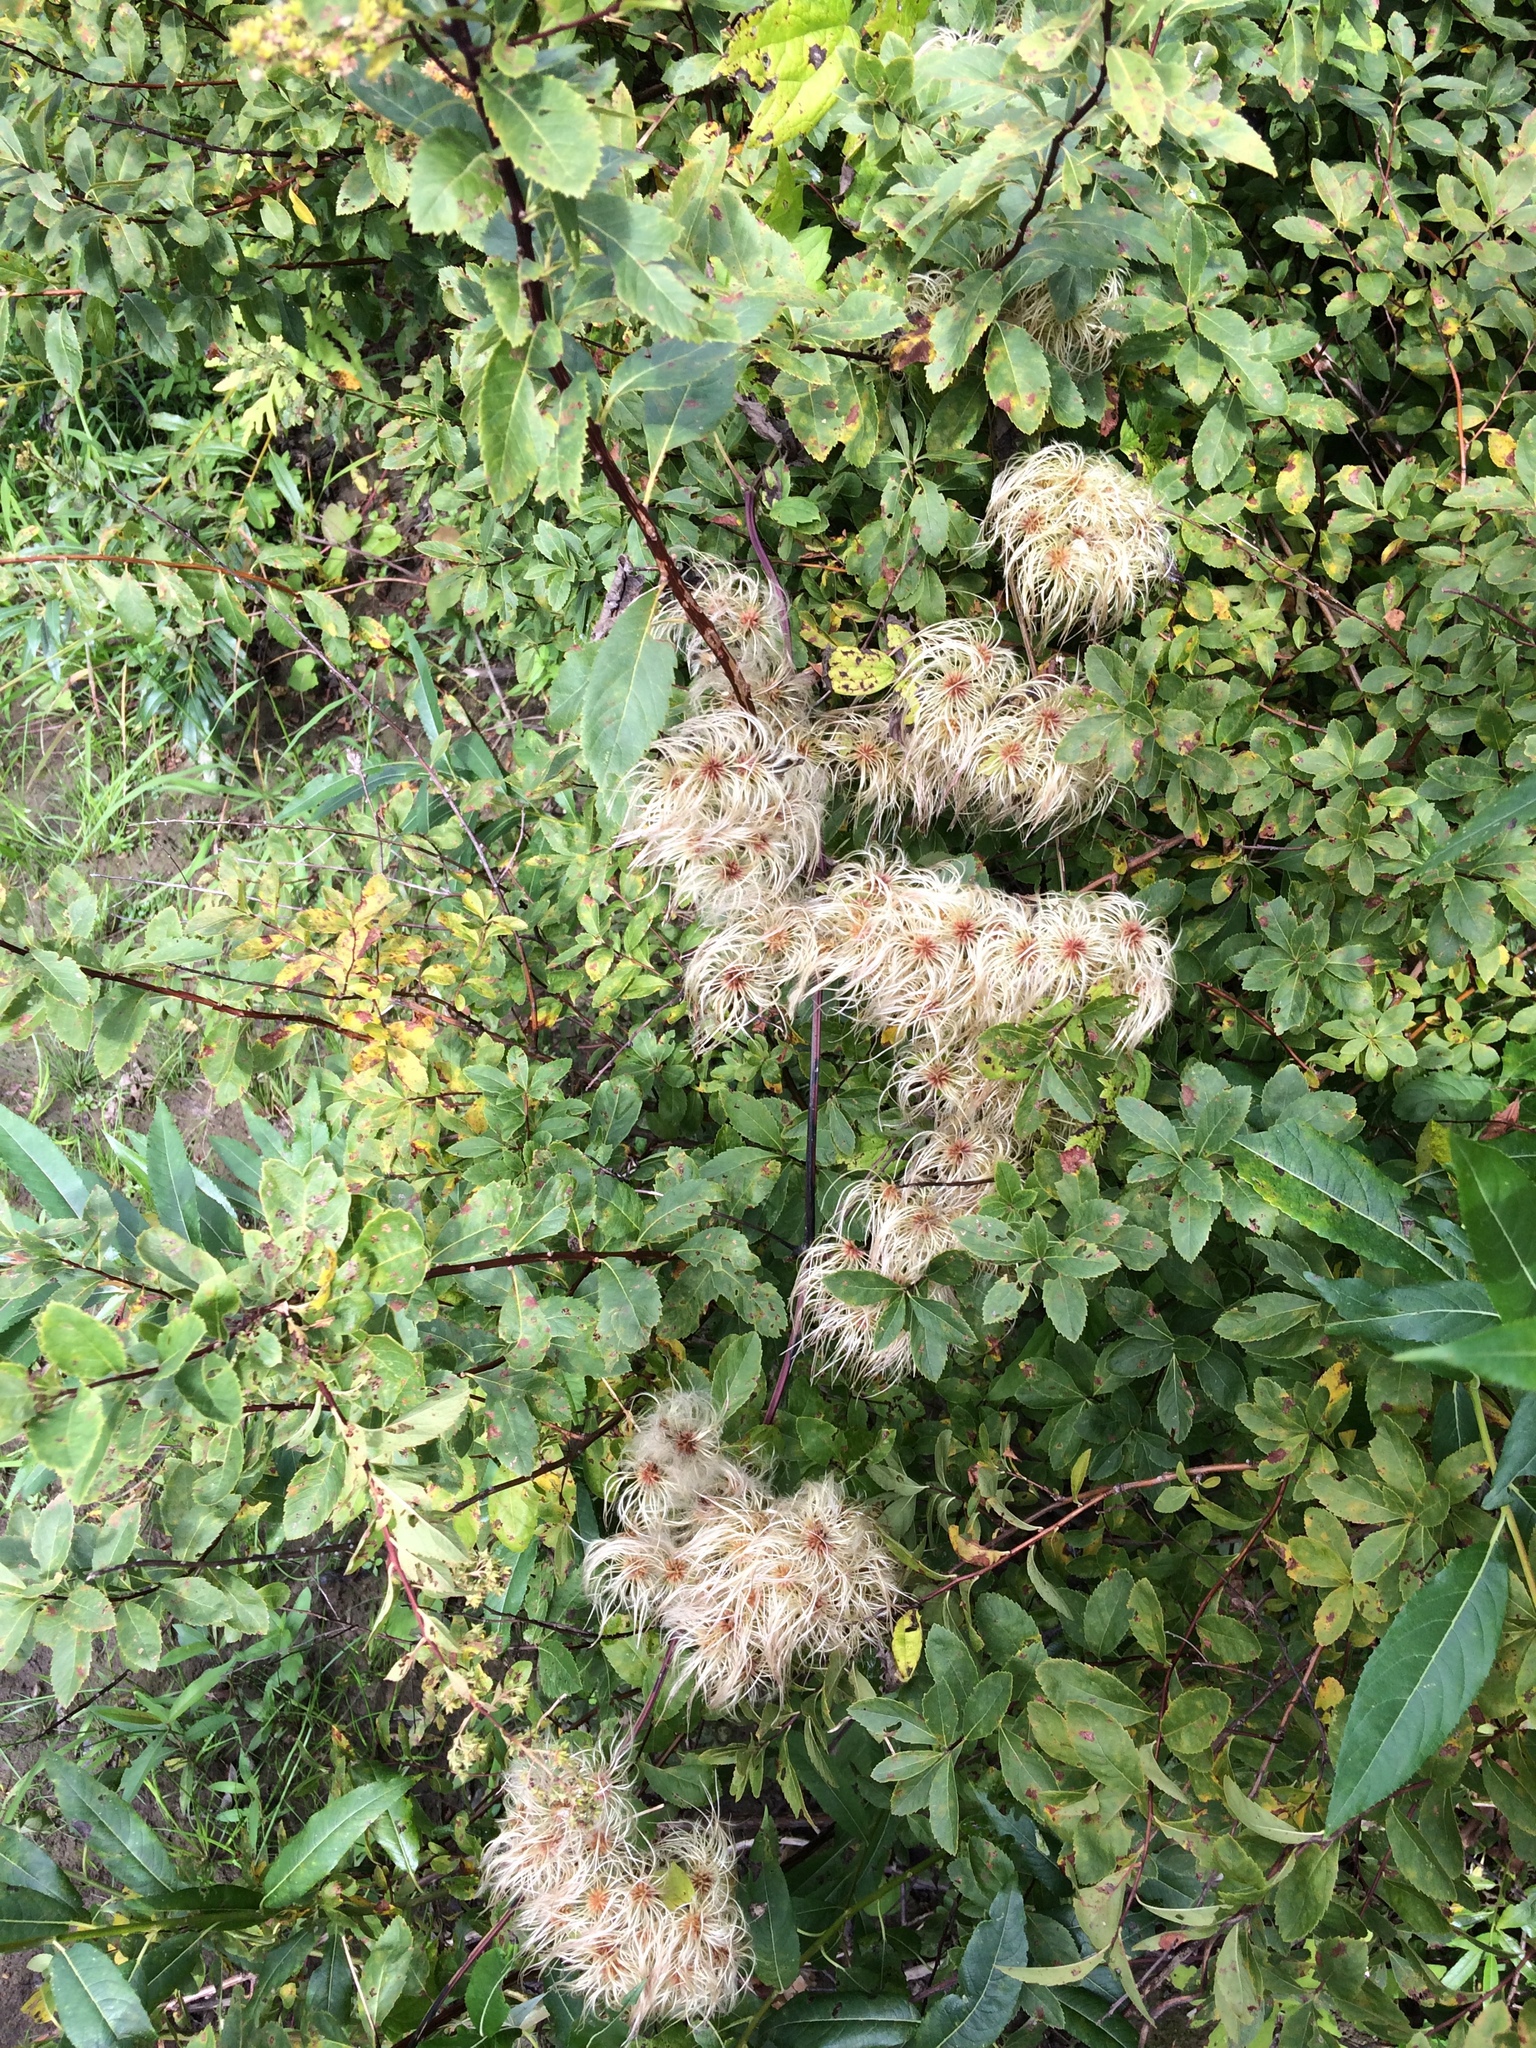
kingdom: Plantae
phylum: Tracheophyta
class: Magnoliopsida
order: Ranunculales
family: Ranunculaceae
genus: Clematis
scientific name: Clematis virginiana
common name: Virgin's-bower
